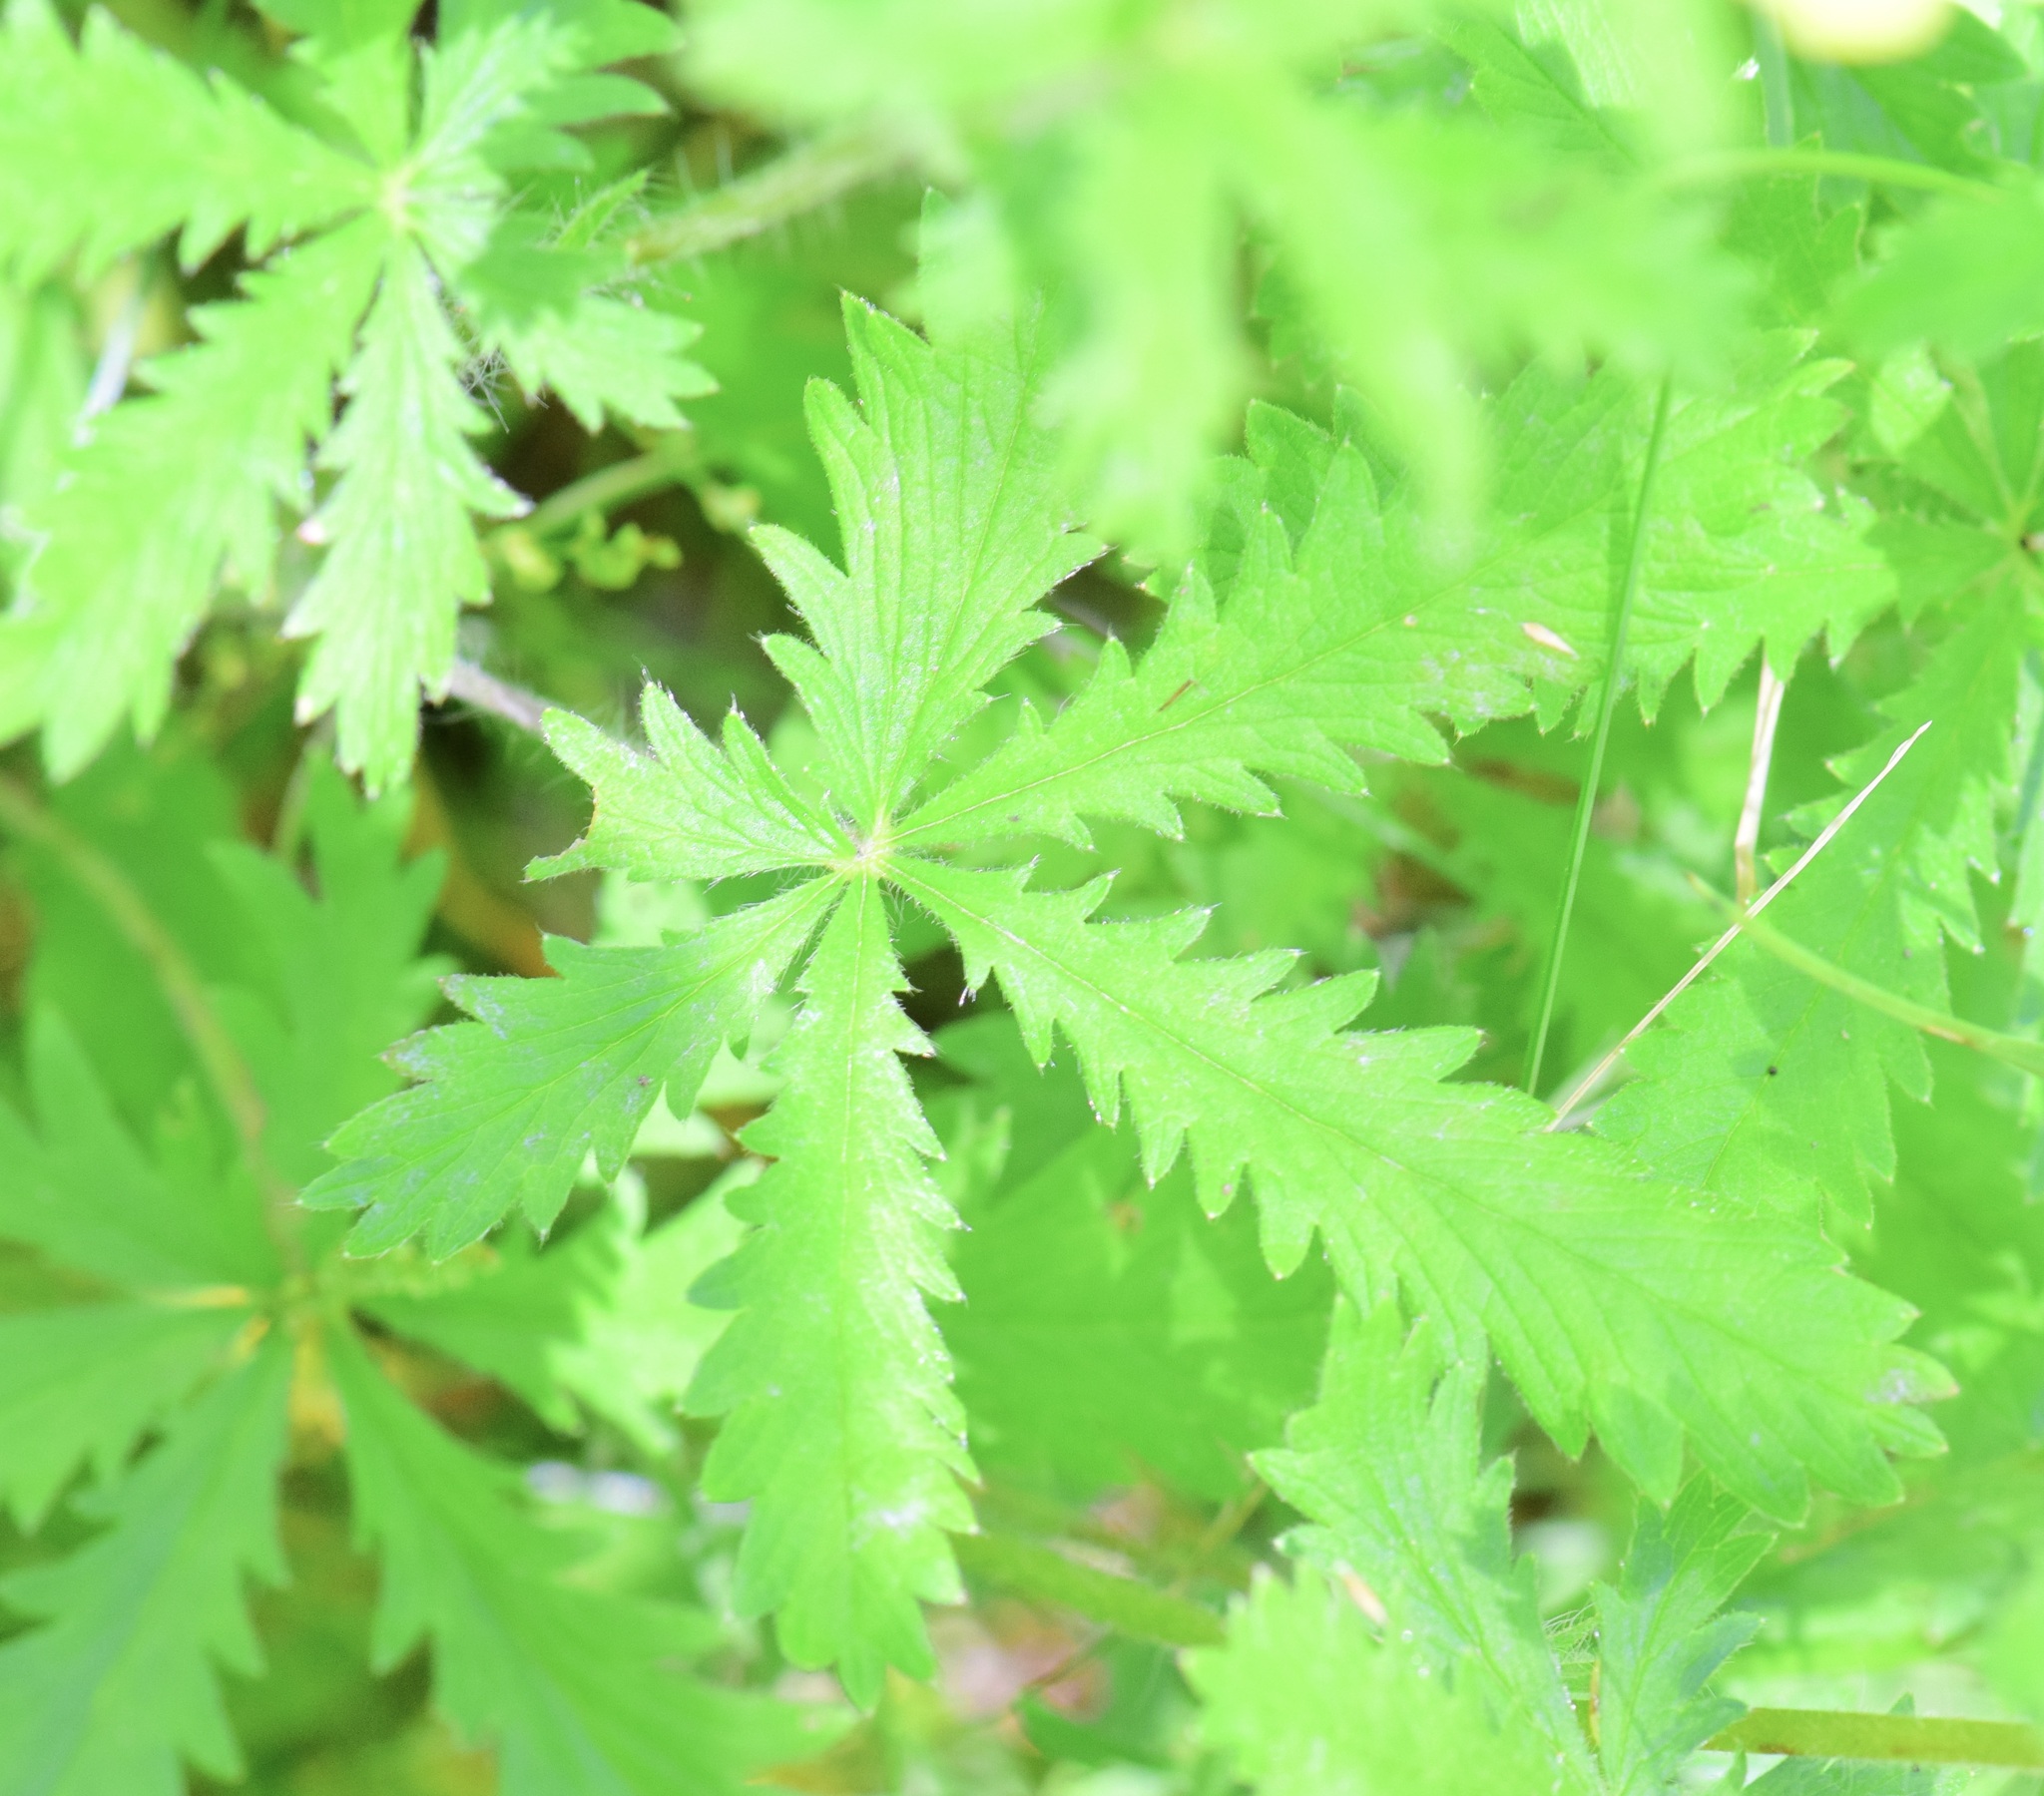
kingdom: Plantae
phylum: Tracheophyta
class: Magnoliopsida
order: Rosales
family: Rosaceae
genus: Potentilla
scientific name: Potentilla recta
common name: Sulphur cinquefoil
